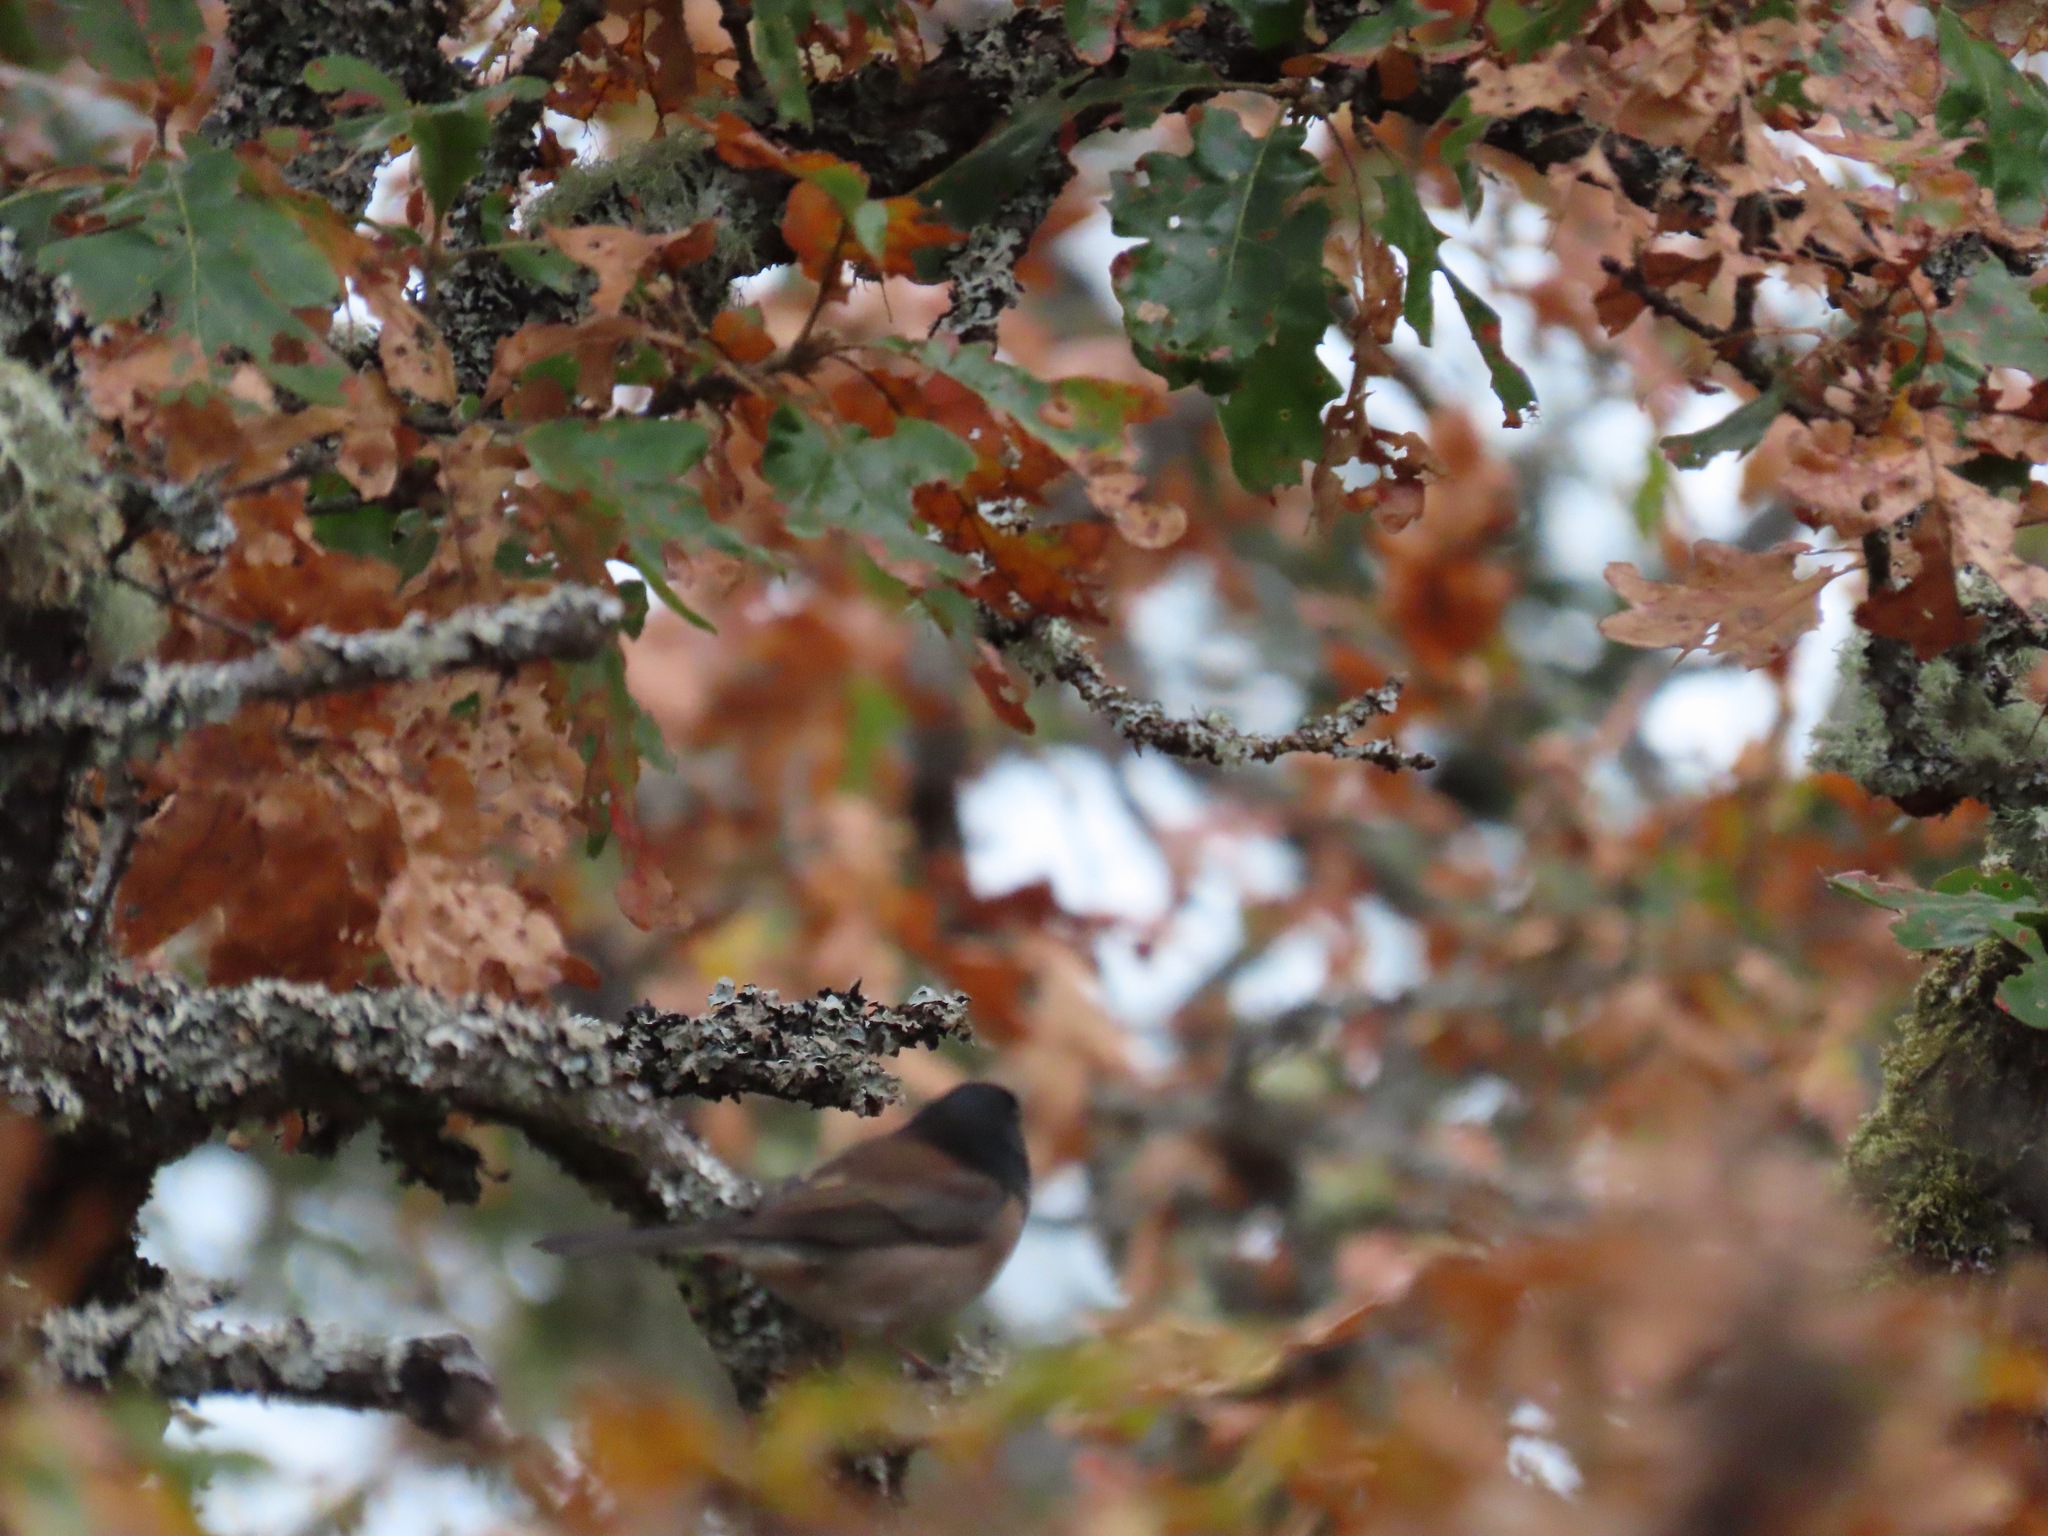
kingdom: Animalia
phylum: Chordata
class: Aves
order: Passeriformes
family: Passerellidae
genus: Junco
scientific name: Junco hyemalis
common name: Dark-eyed junco
